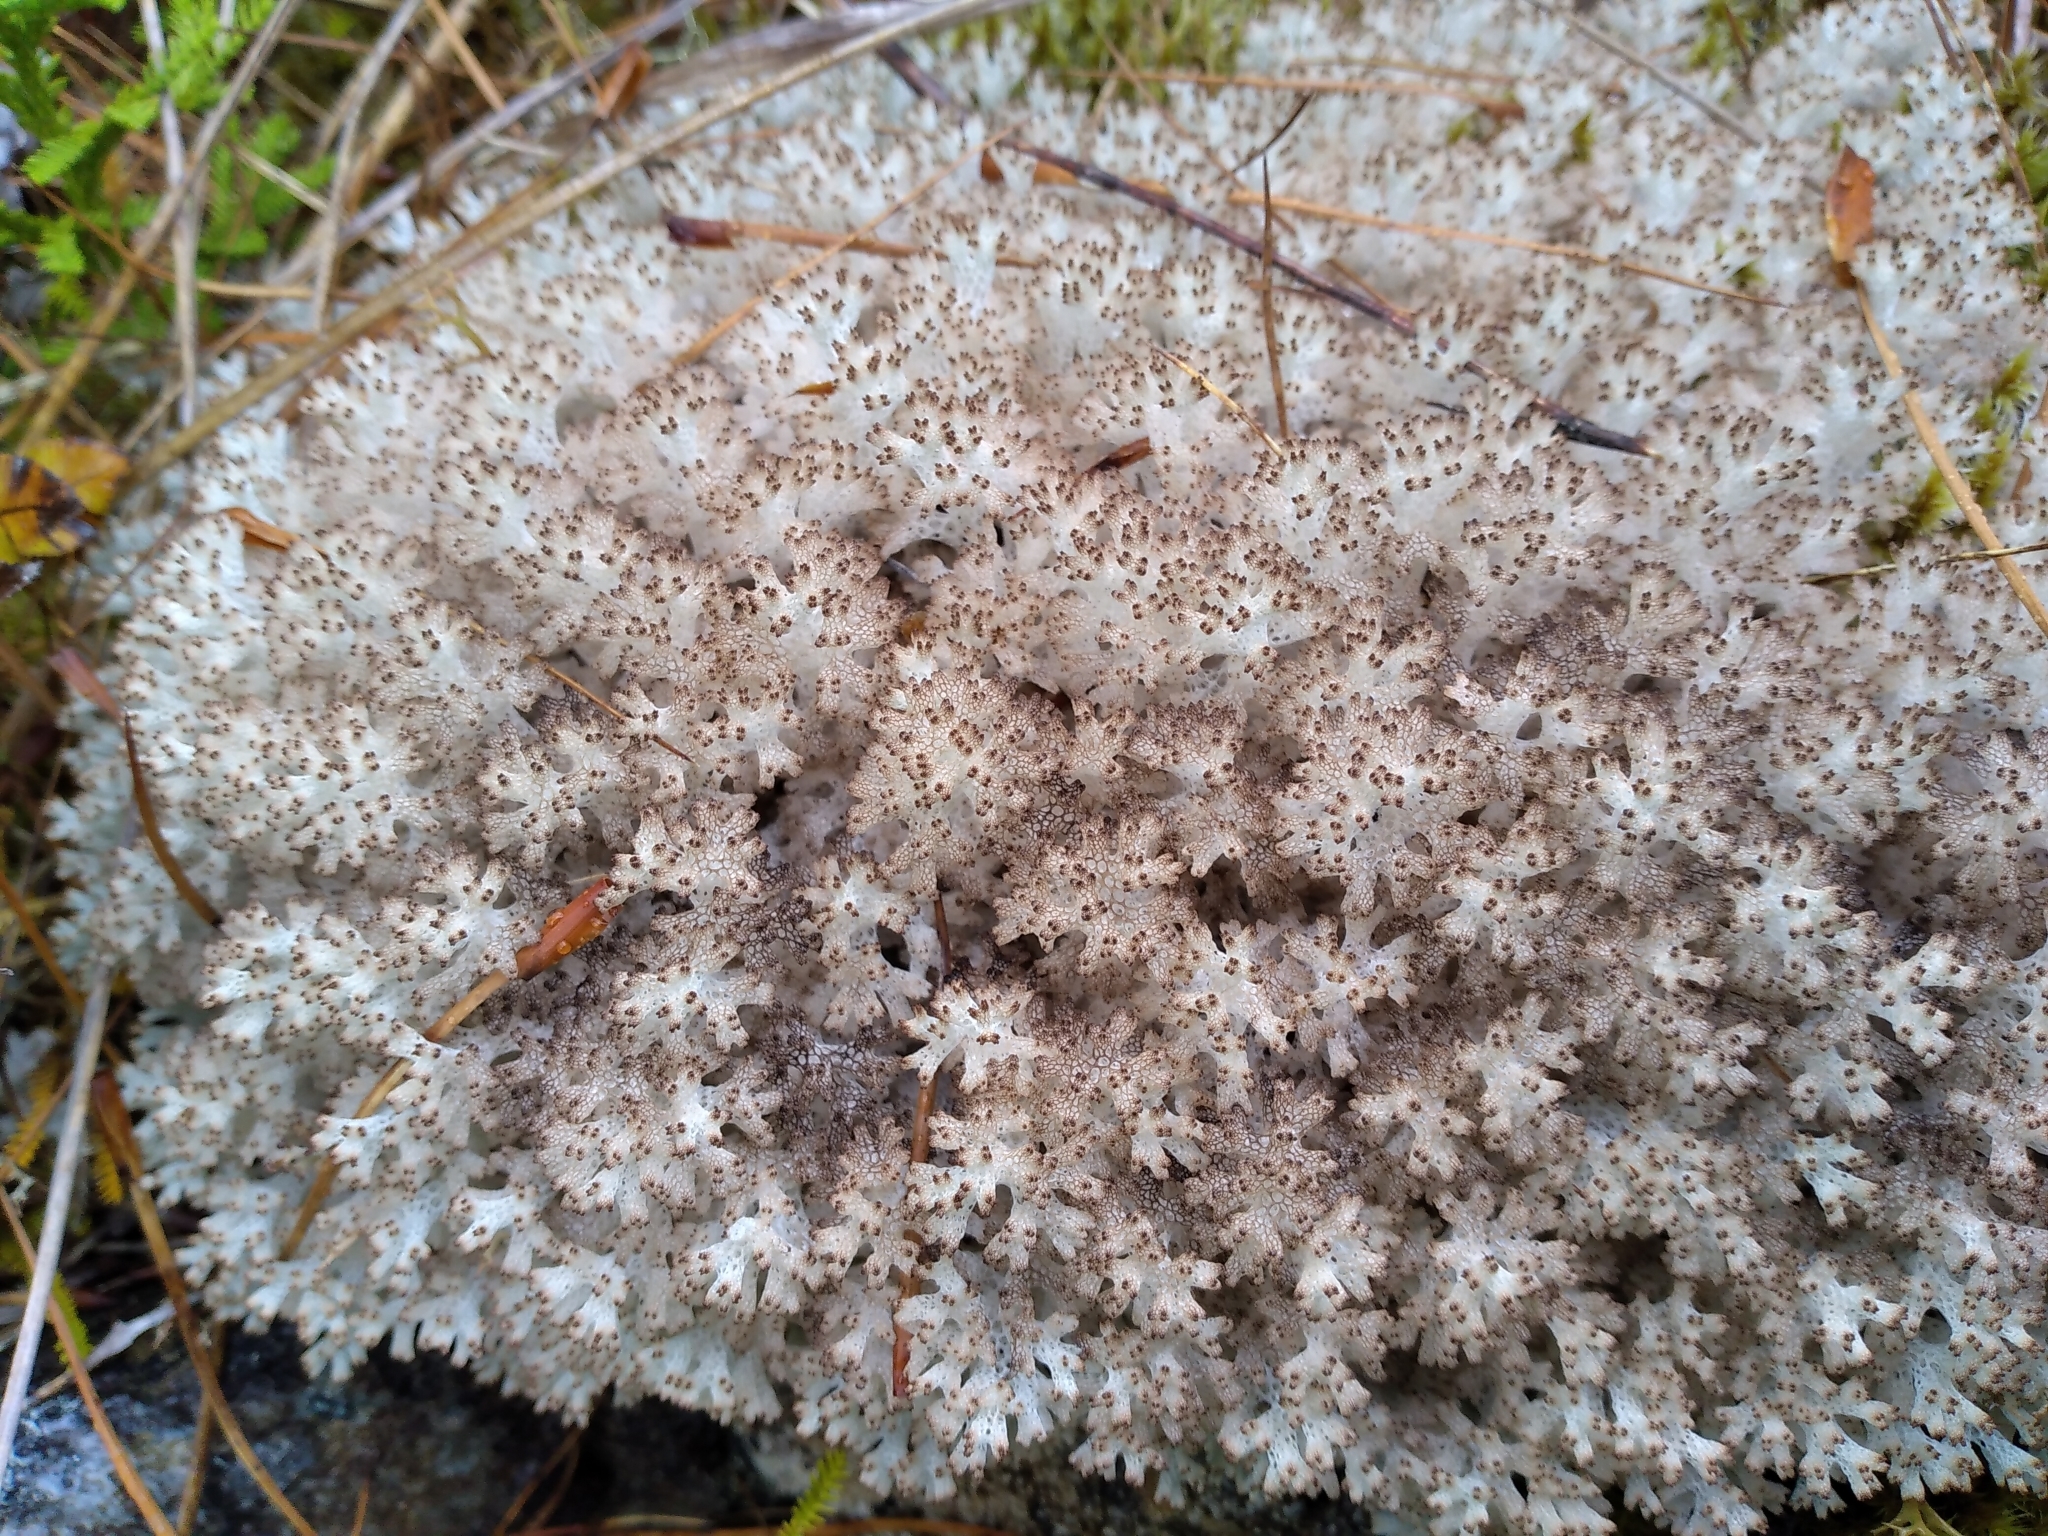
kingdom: Fungi
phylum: Ascomycota
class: Lecanoromycetes
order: Lecanorales
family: Cladoniaceae
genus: Pulchrocladia
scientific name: Pulchrocladia retipora
